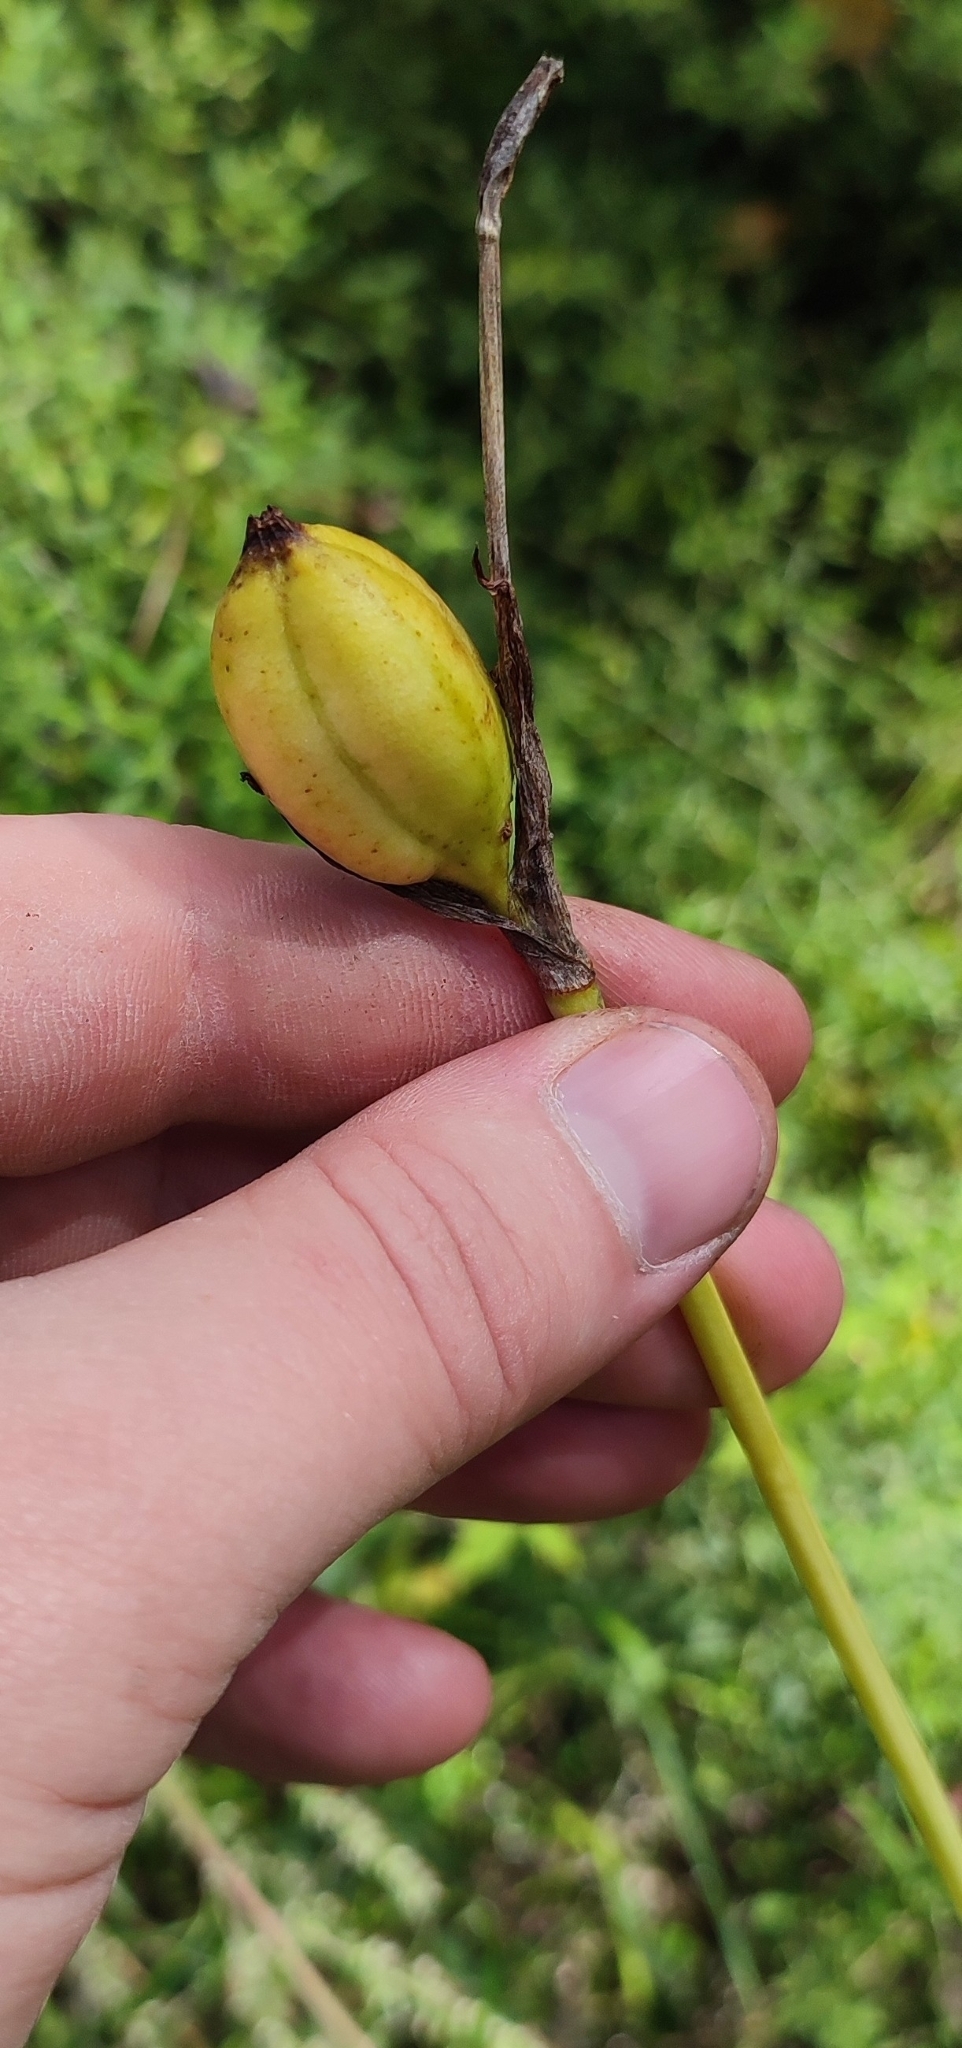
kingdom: Plantae
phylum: Tracheophyta
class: Liliopsida
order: Asparagales
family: Iridaceae
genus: Iris
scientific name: Iris sibirica
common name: Siberian iris
